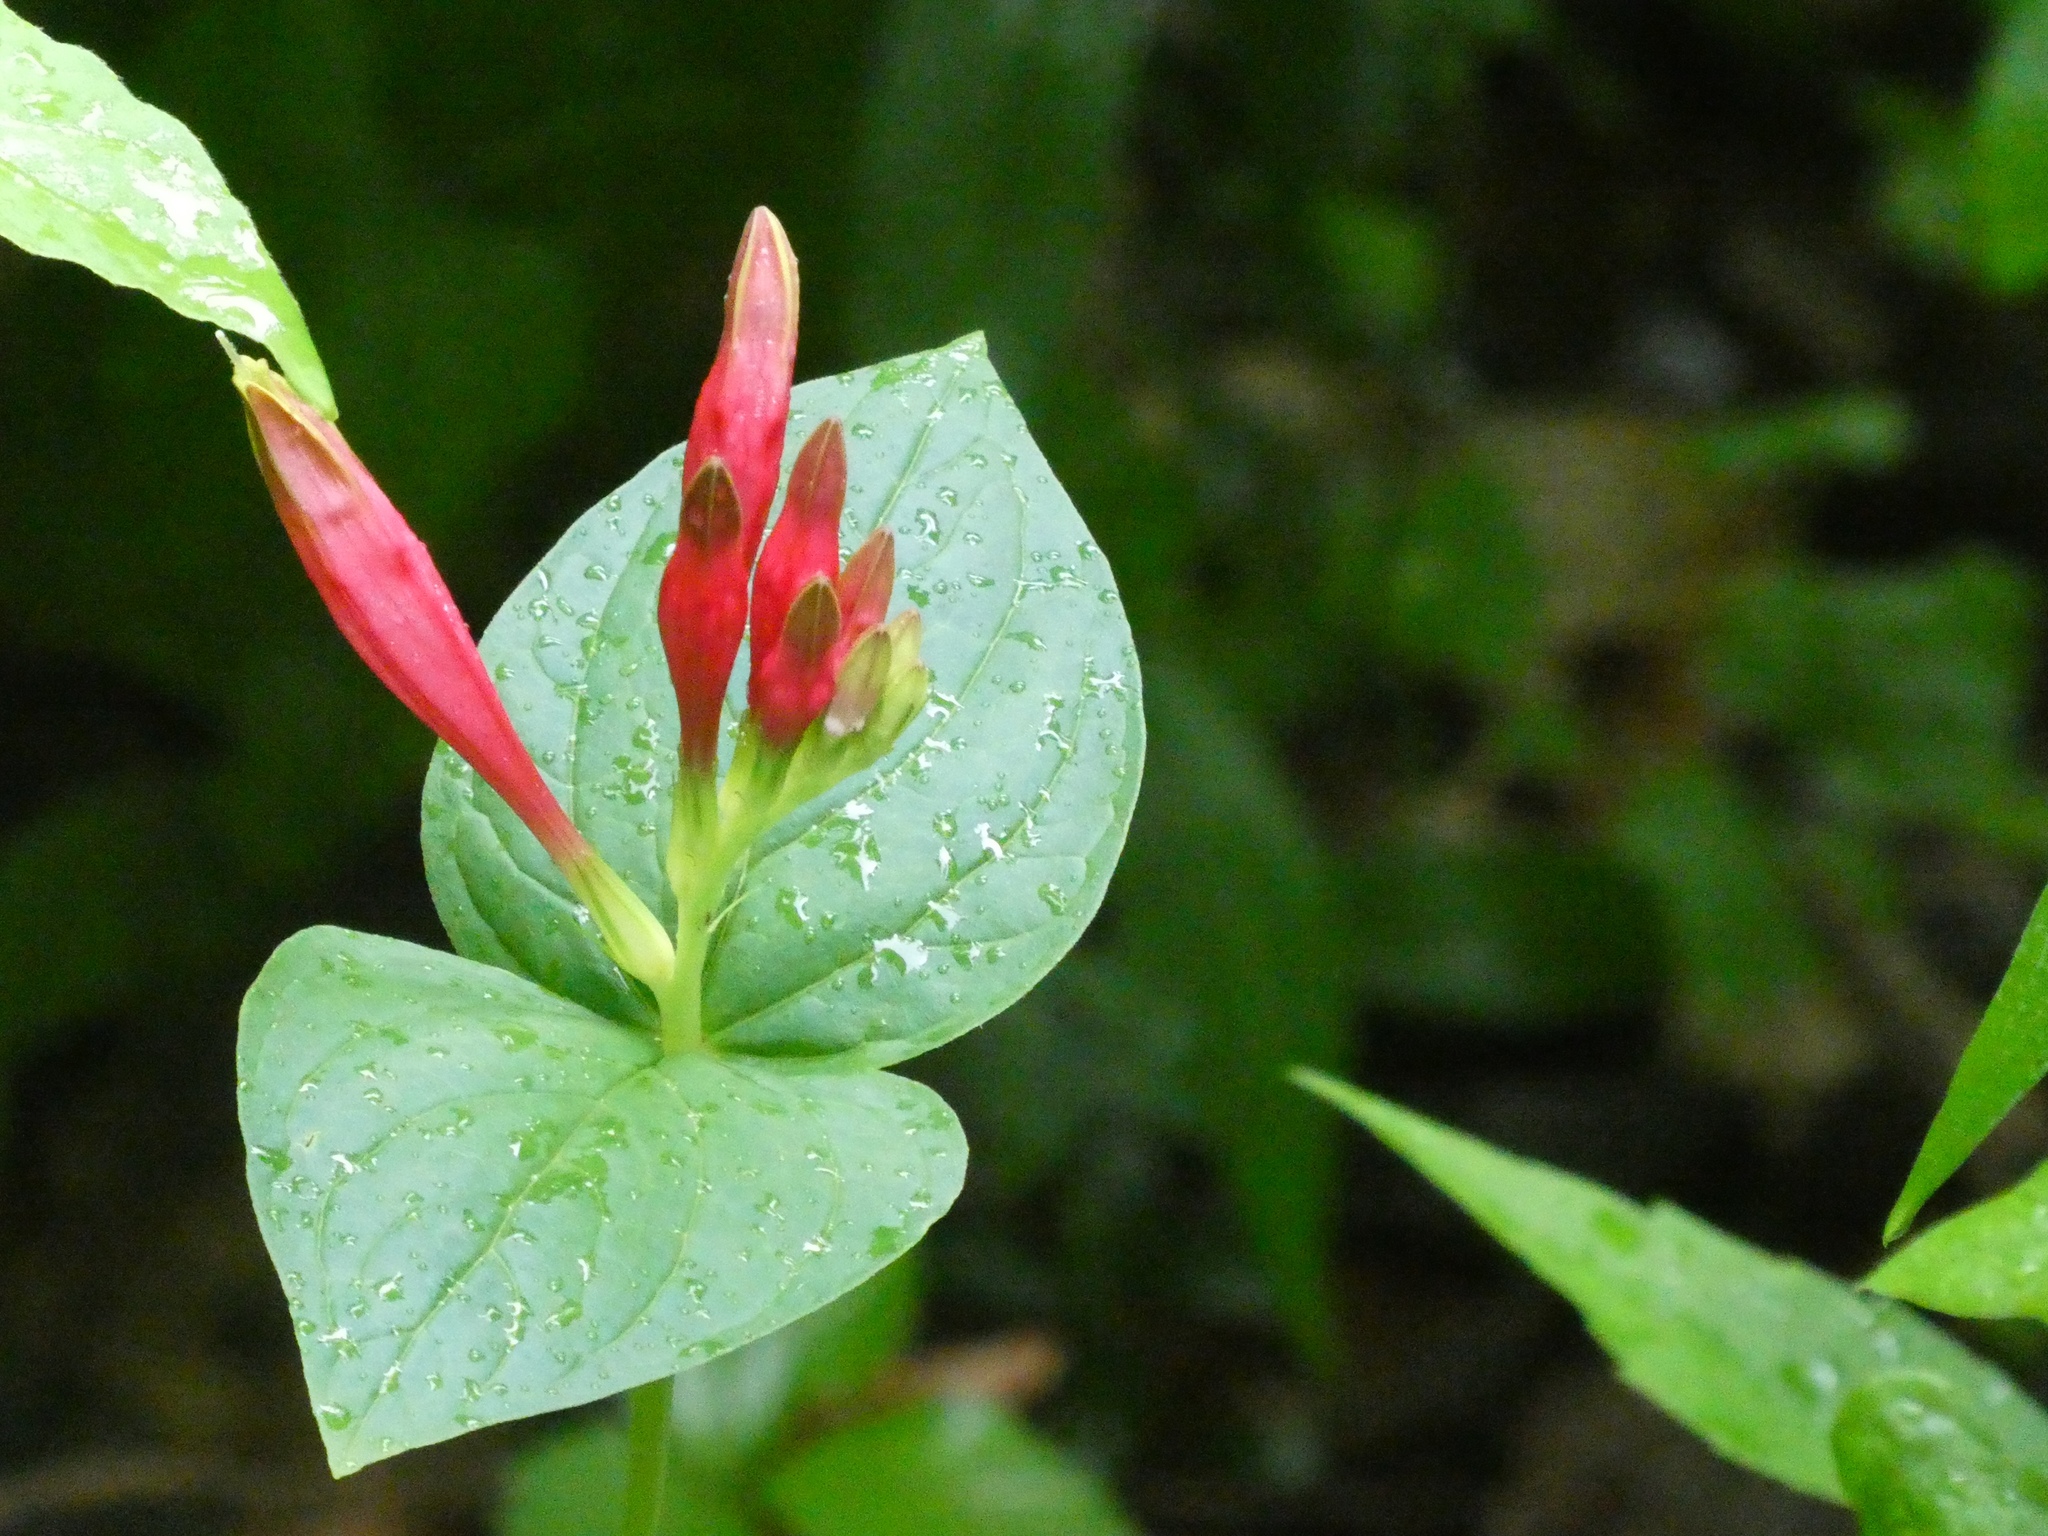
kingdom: Plantae
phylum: Tracheophyta
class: Magnoliopsida
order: Gentianales
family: Loganiaceae
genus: Spigelia
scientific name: Spigelia marilandica
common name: Indian-pink
